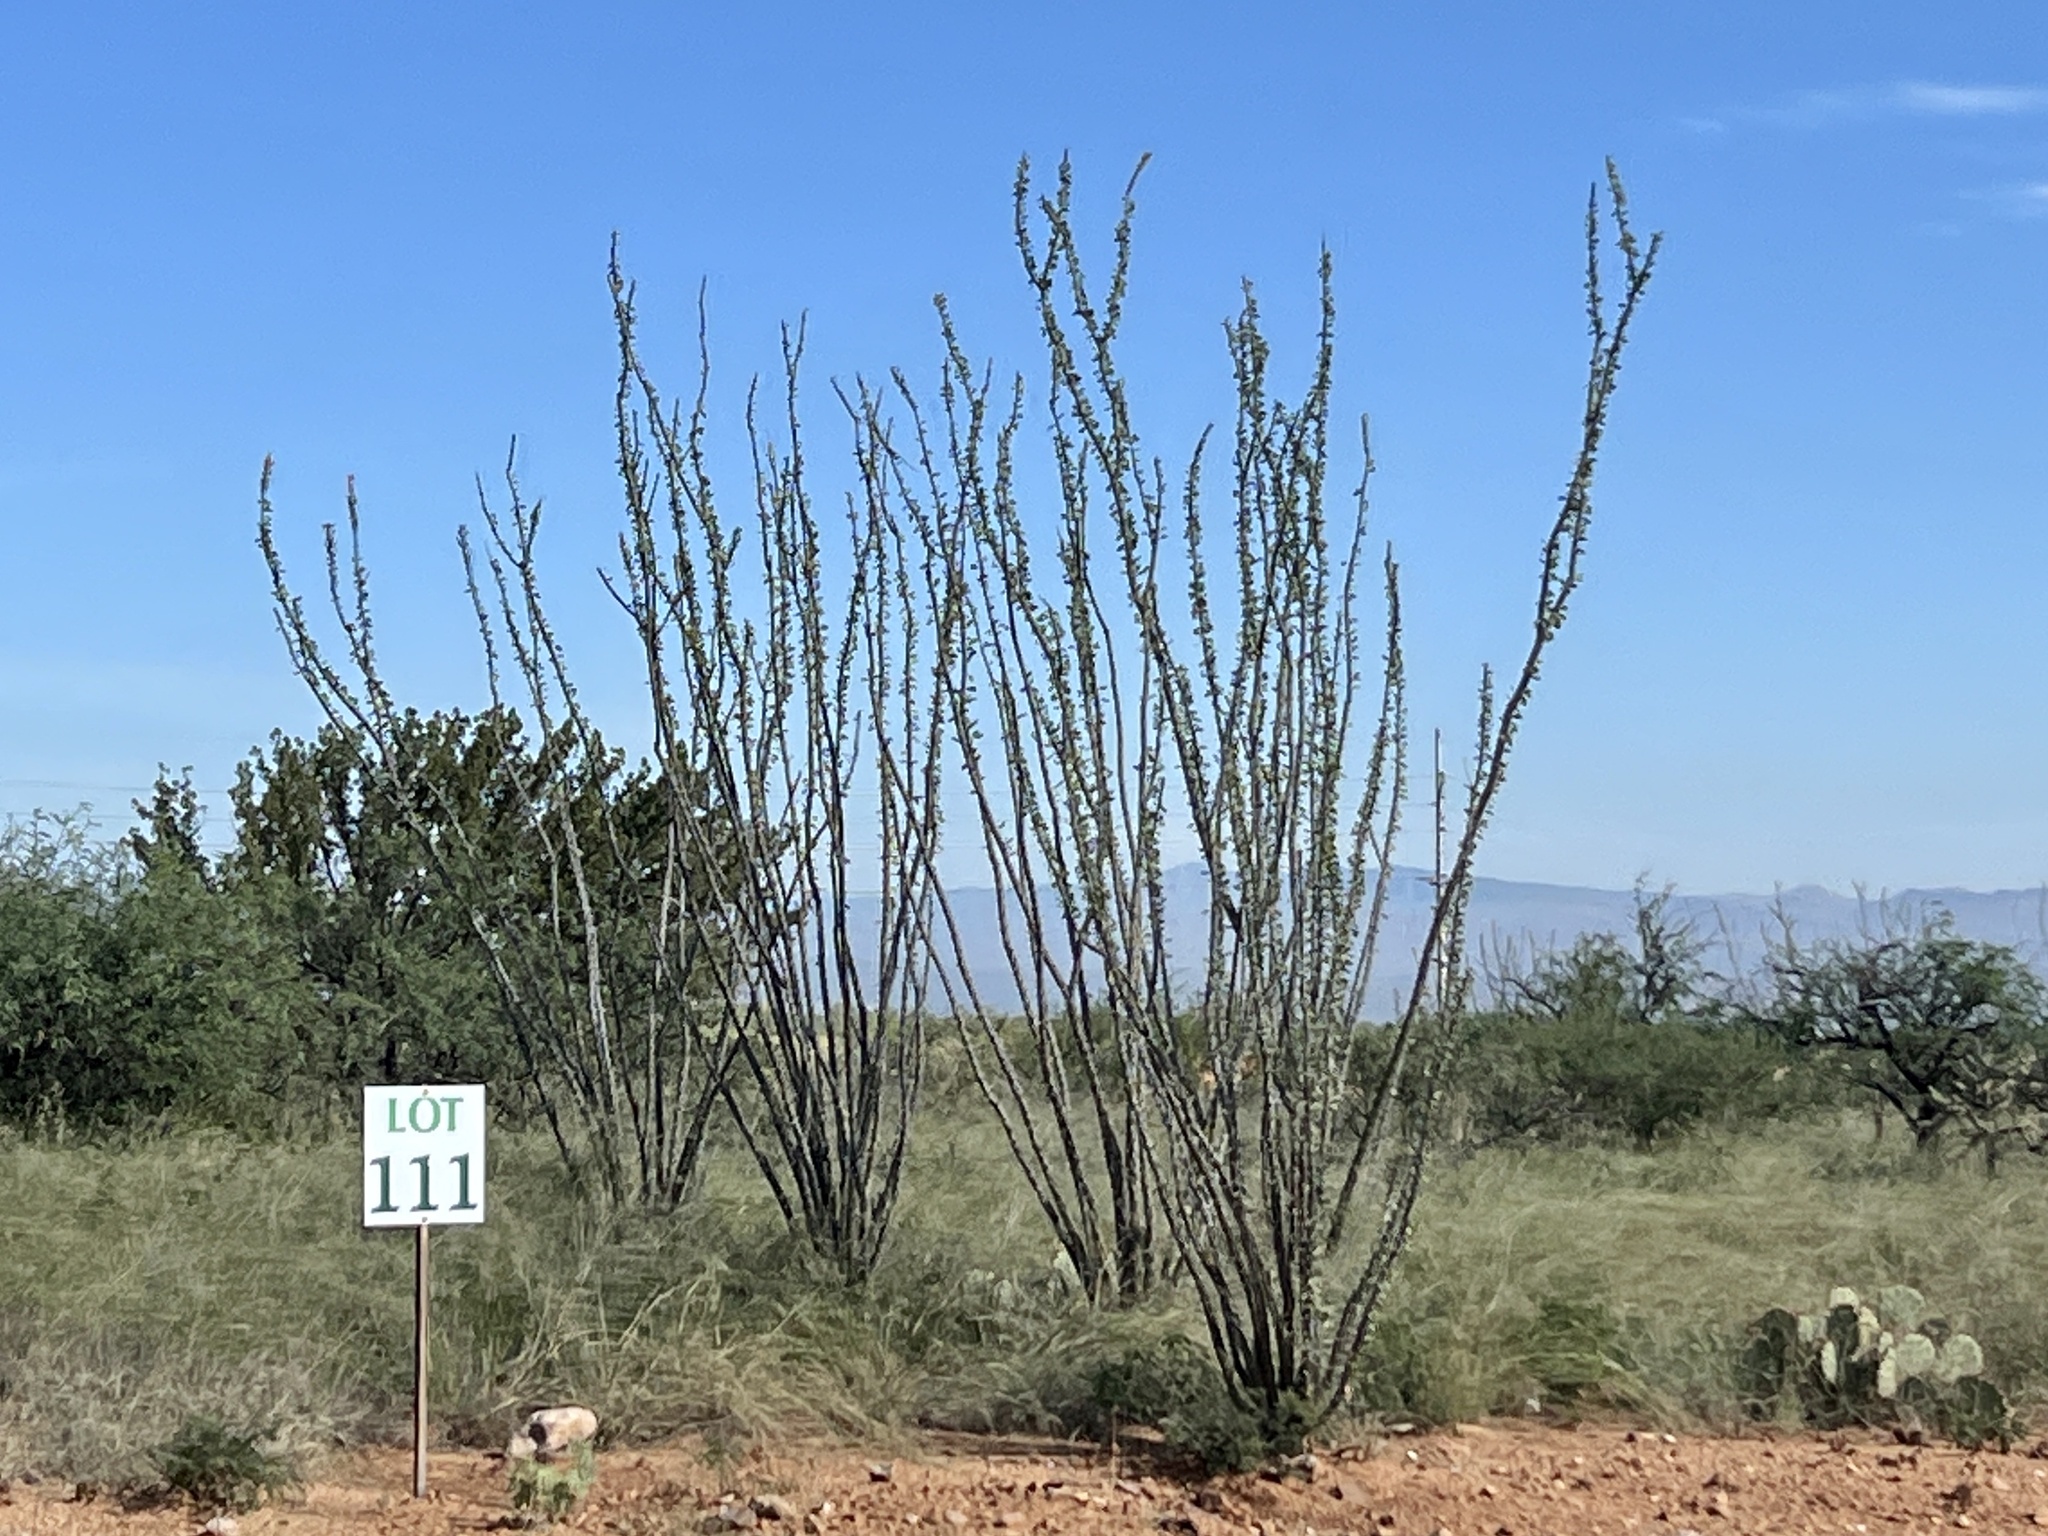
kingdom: Plantae
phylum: Tracheophyta
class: Magnoliopsida
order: Ericales
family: Fouquieriaceae
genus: Fouquieria
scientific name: Fouquieria splendens
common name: Vine-cactus
